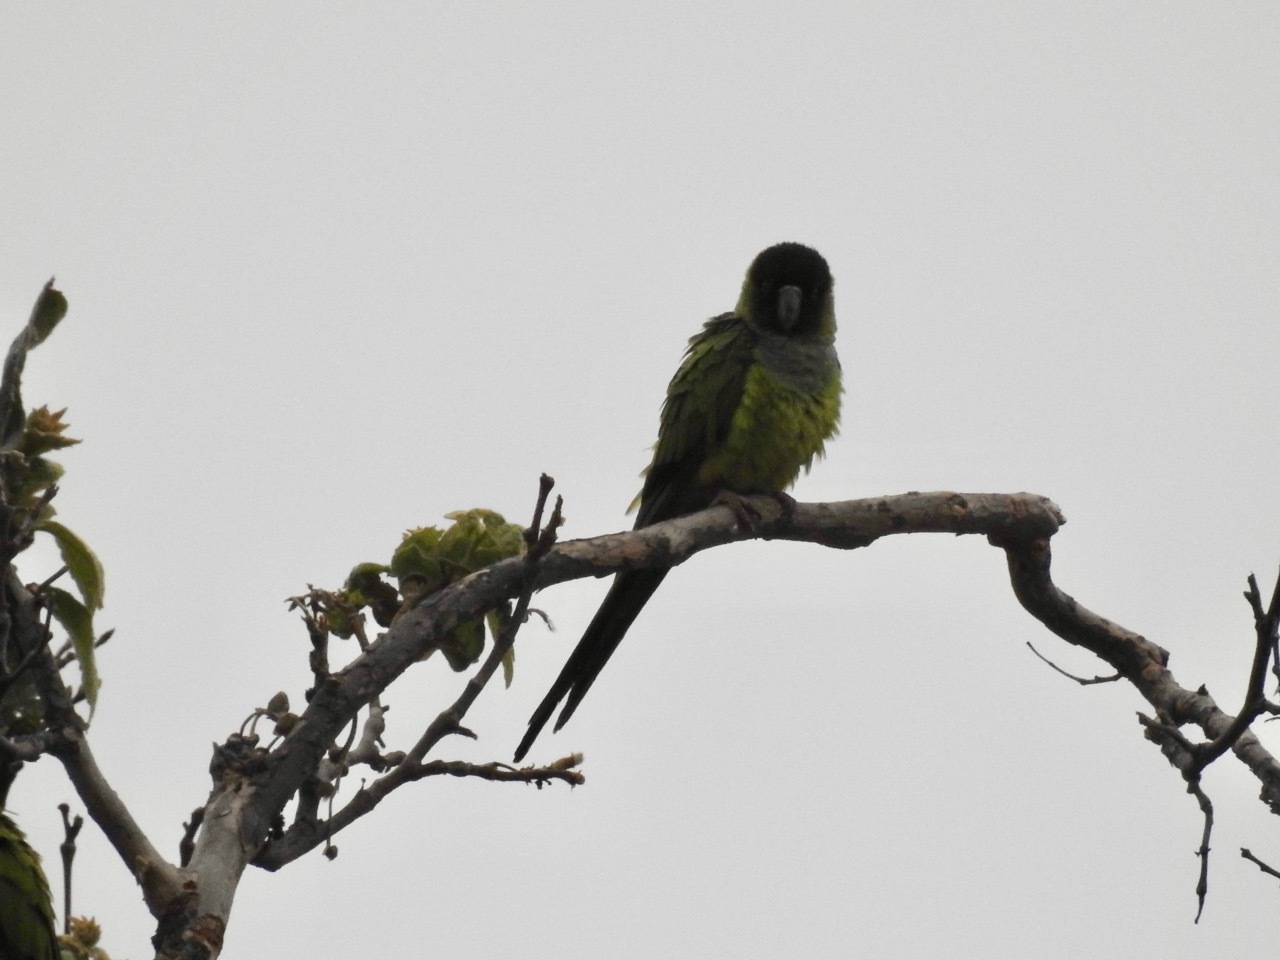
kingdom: Animalia
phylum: Chordata
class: Aves
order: Psittaciformes
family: Psittacidae
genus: Nandayus
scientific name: Nandayus nenday
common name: Nanday parakeet
